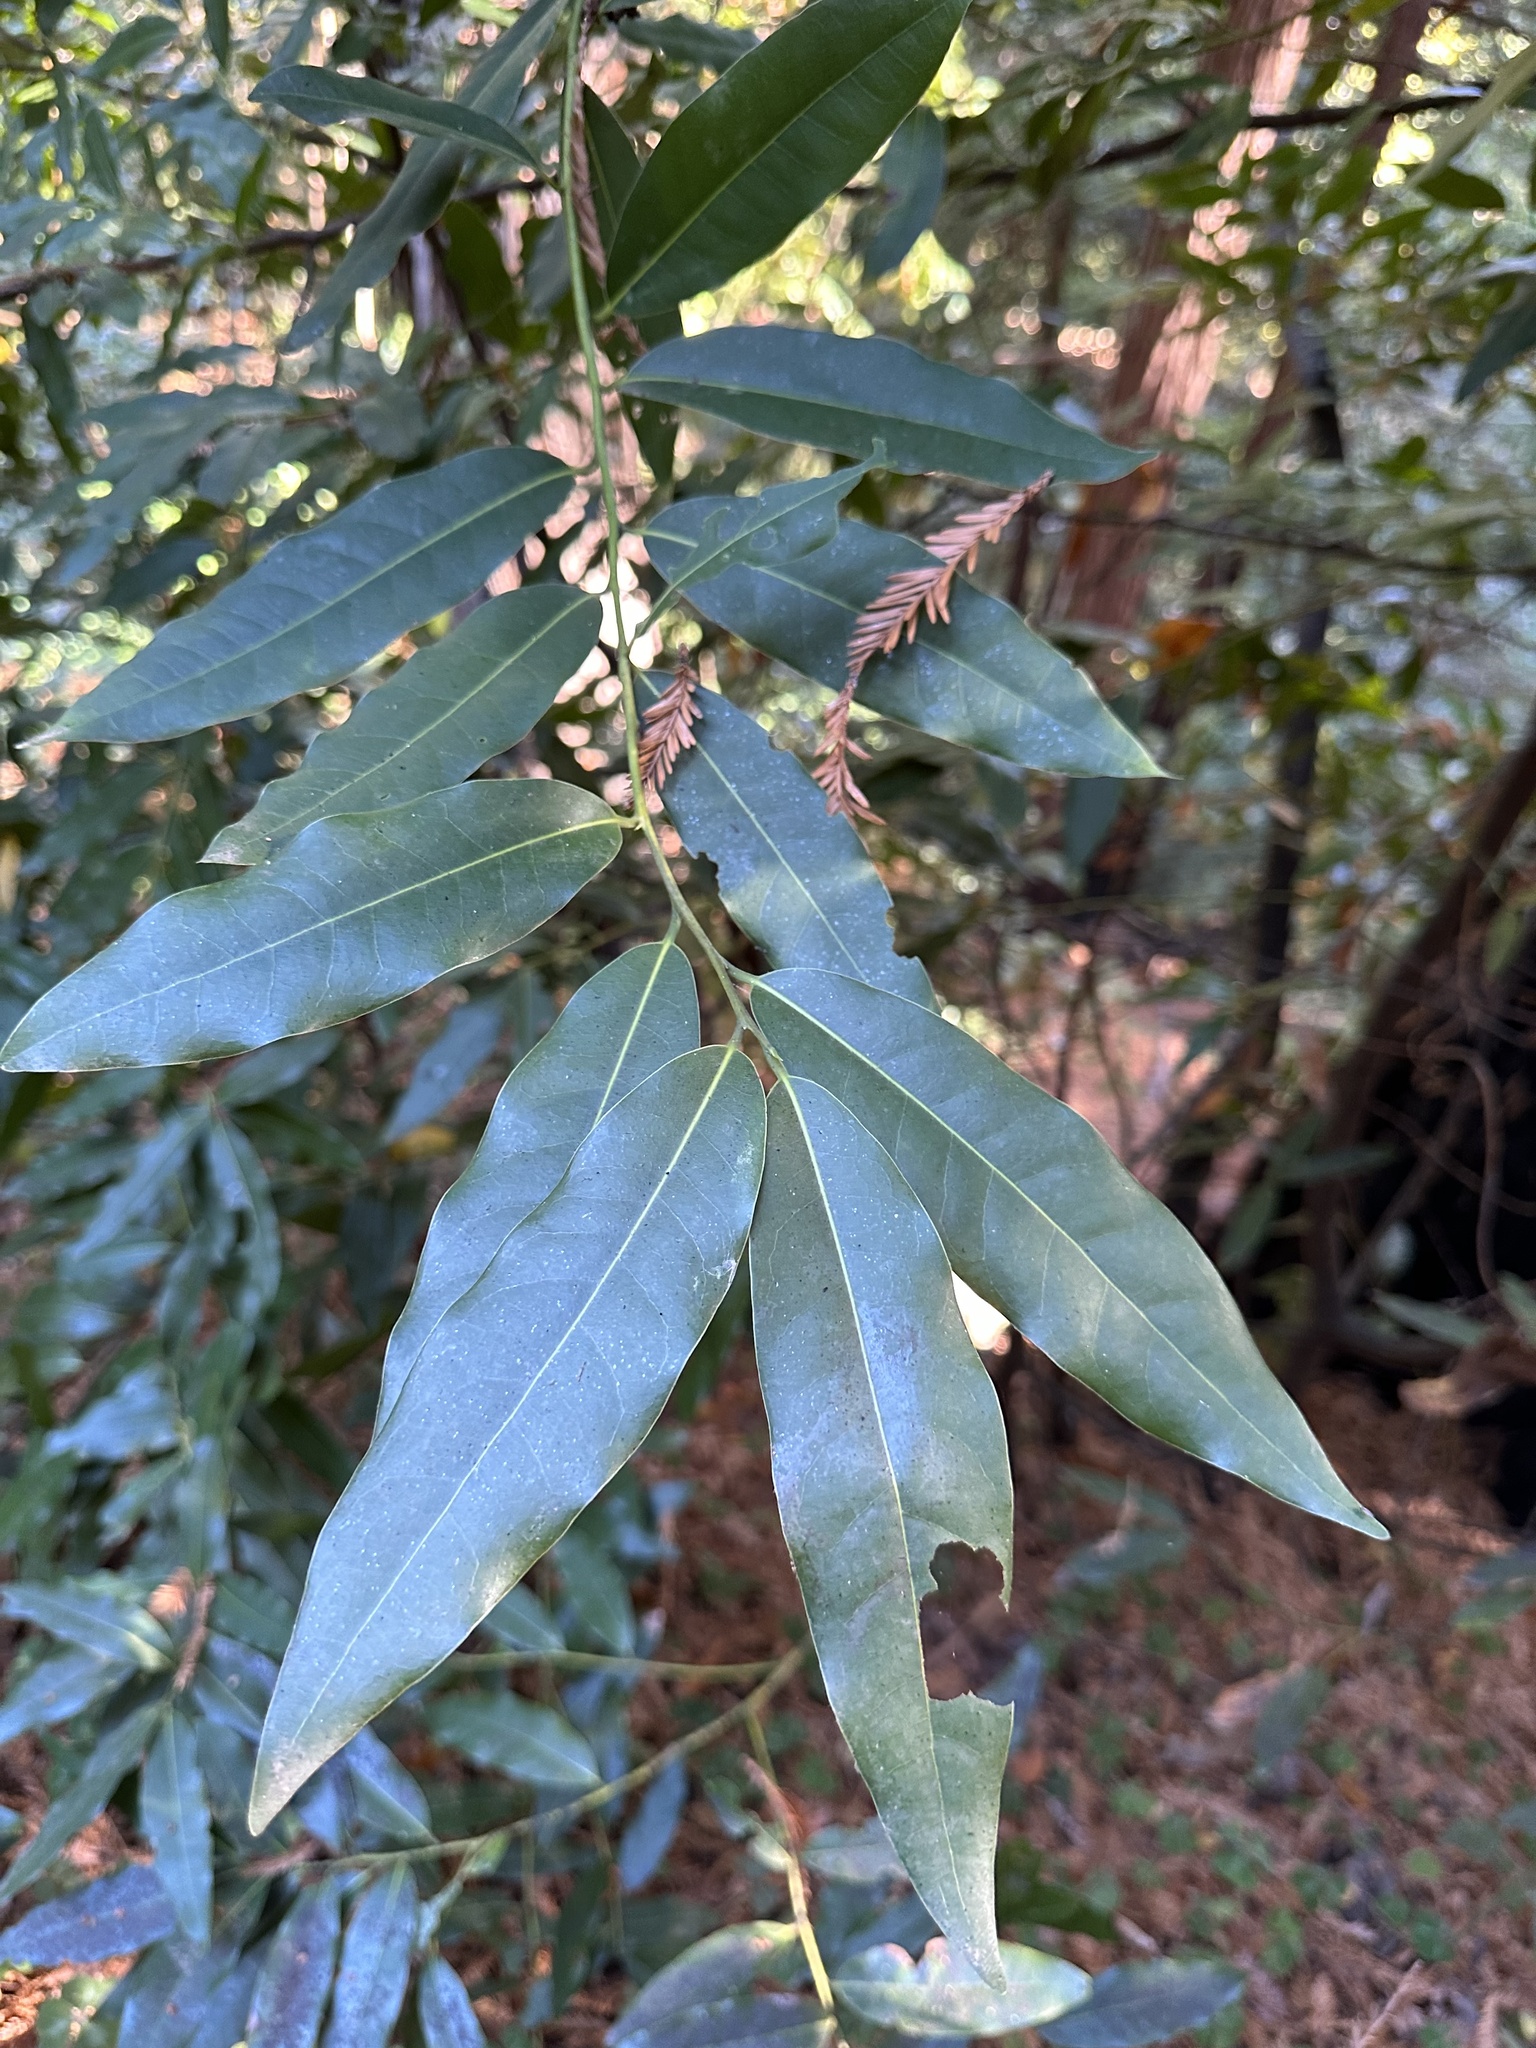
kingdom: Plantae
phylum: Tracheophyta
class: Magnoliopsida
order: Laurales
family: Lauraceae
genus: Umbellularia
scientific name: Umbellularia californica
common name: California bay
